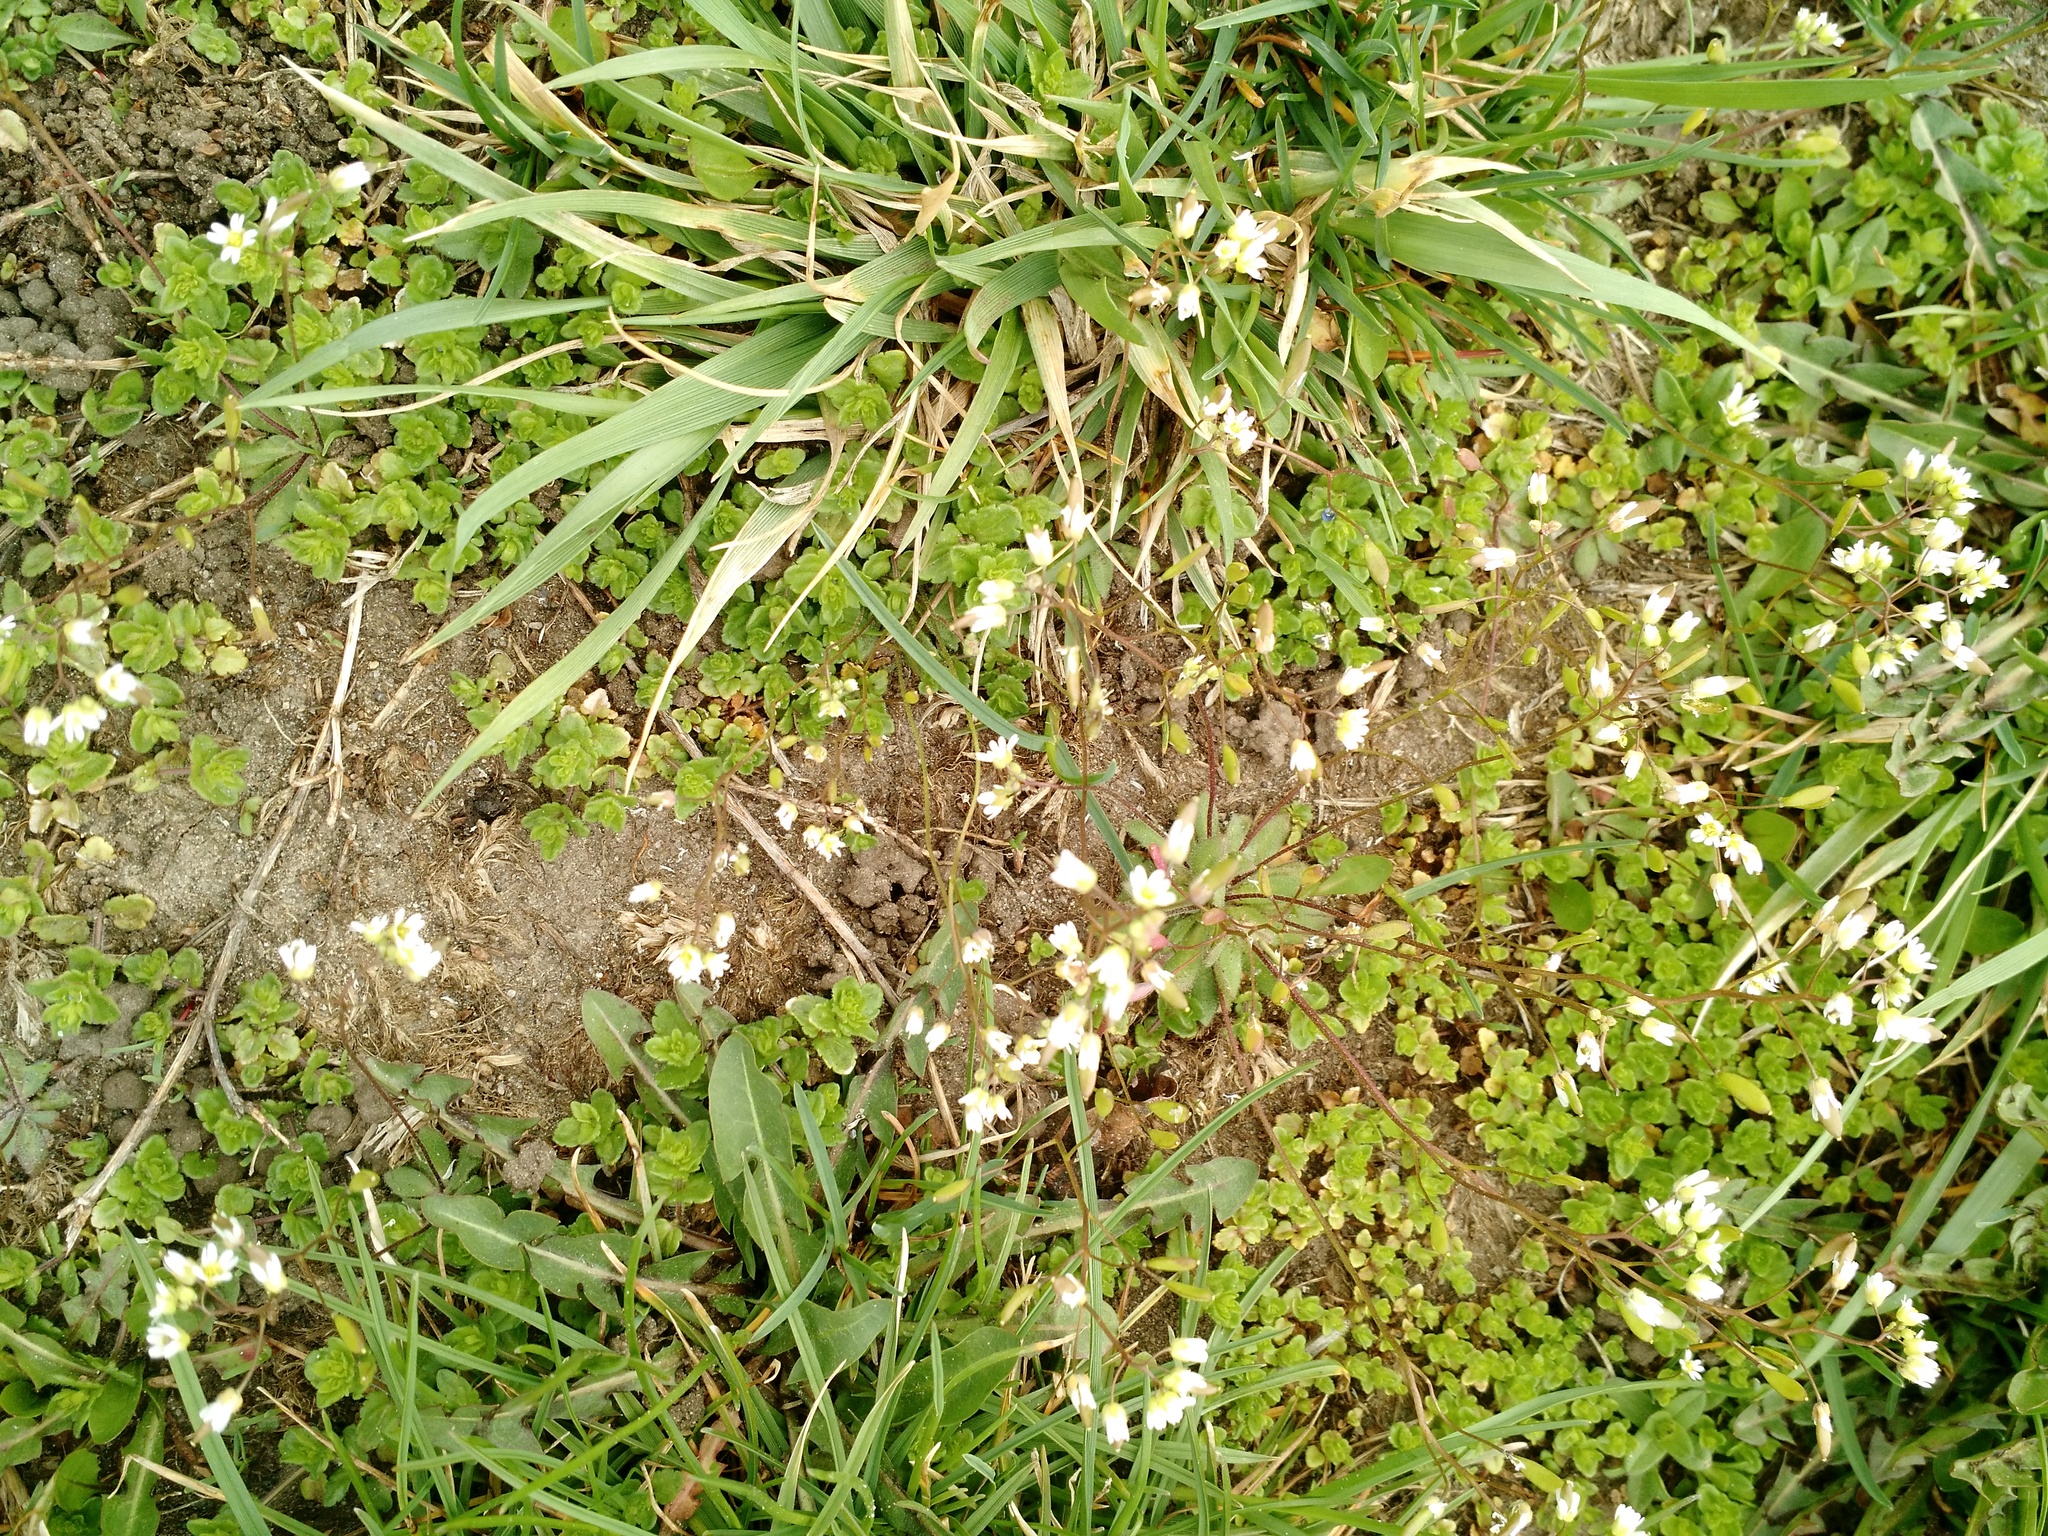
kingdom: Plantae
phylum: Tracheophyta
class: Magnoliopsida
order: Brassicales
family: Brassicaceae
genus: Draba
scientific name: Draba verna
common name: Spring draba
